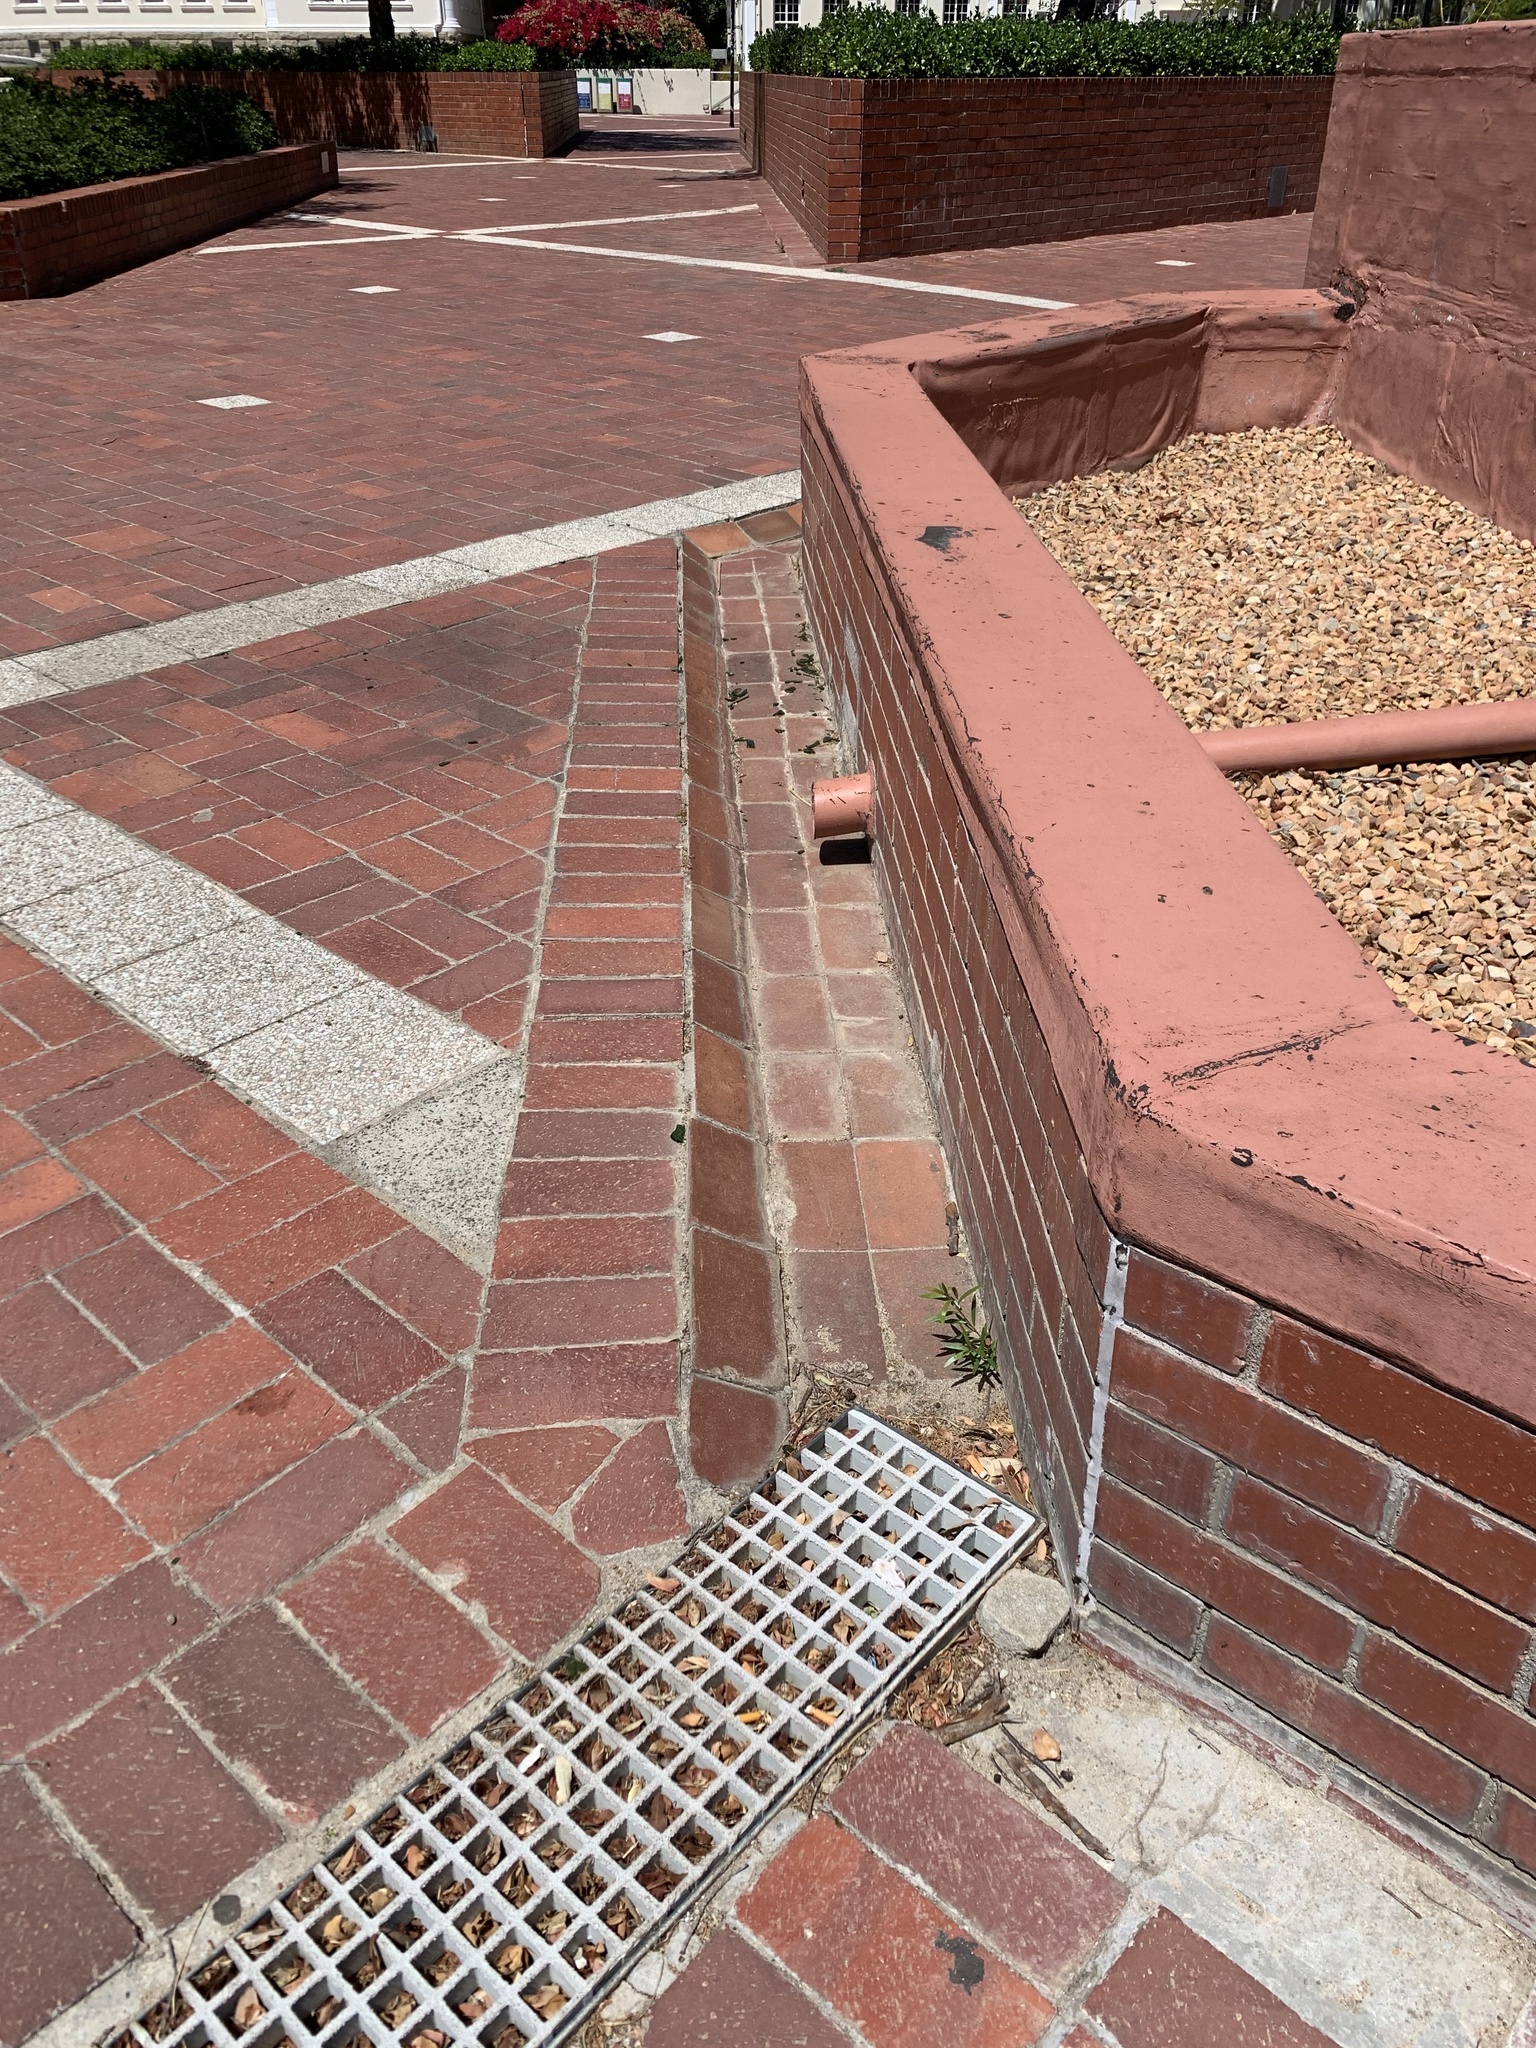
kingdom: Plantae
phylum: Tracheophyta
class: Magnoliopsida
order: Myrtales
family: Myrtaceae
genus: Callistemon
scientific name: Callistemon viminalis
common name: Drooping bottlebrush
